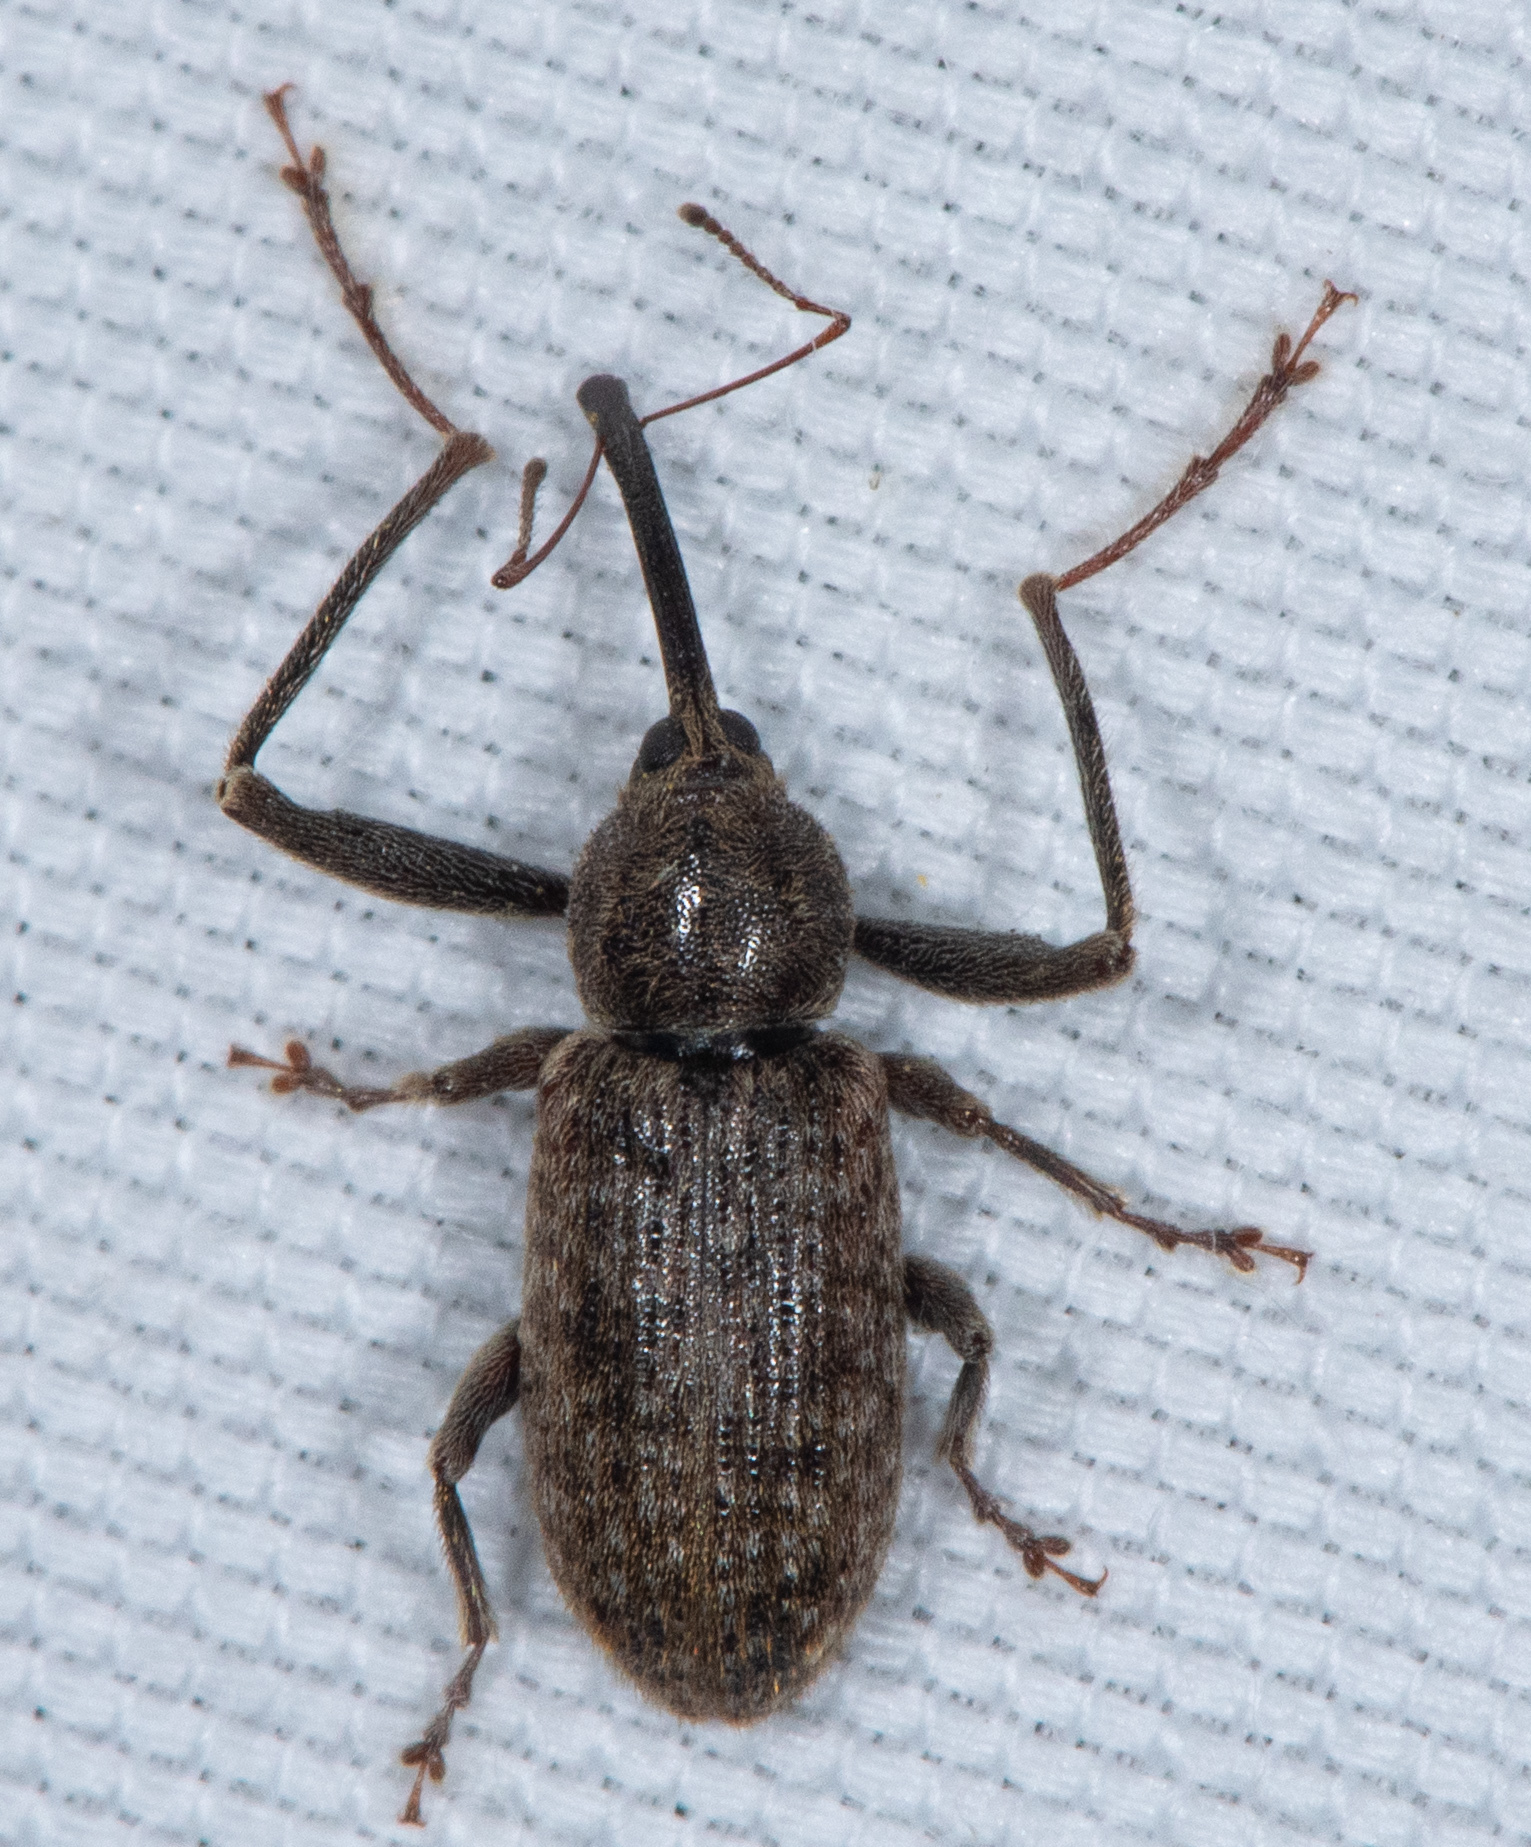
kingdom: Animalia
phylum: Arthropoda
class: Insecta
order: Coleoptera
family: Curculionidae
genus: Dorytomus
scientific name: Dorytomus inaequalis
